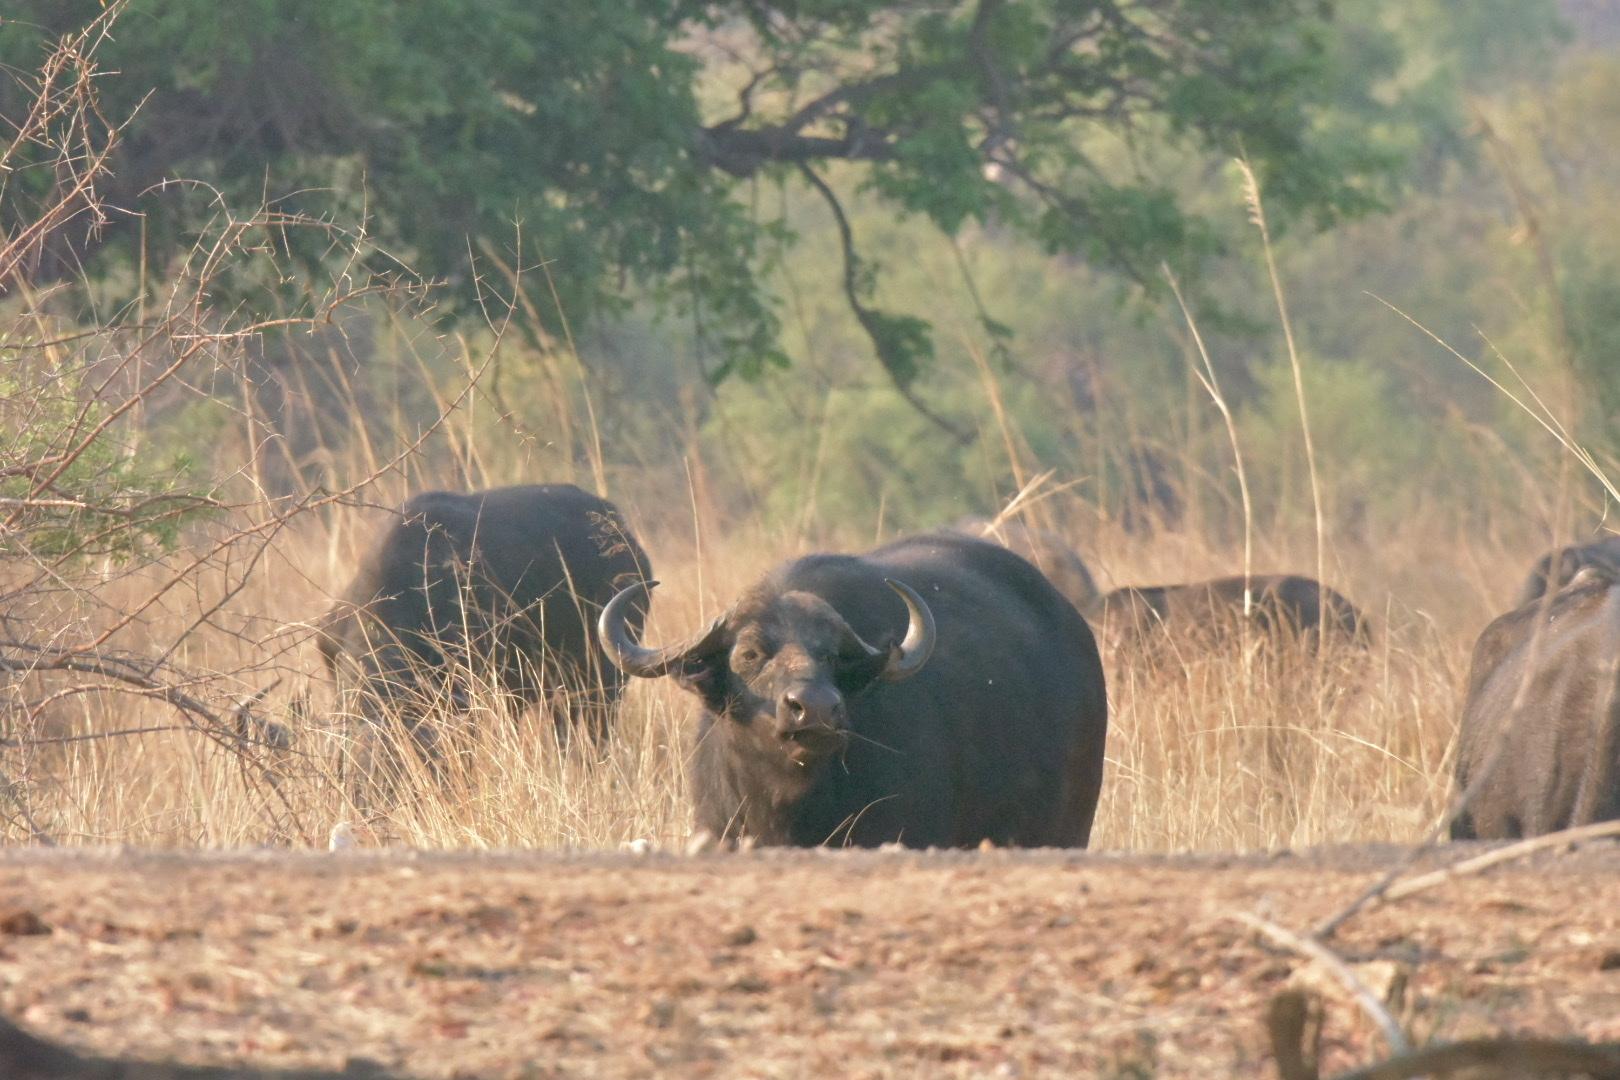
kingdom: Animalia
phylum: Chordata
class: Mammalia
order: Artiodactyla
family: Bovidae
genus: Syncerus
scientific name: Syncerus caffer
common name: African buffalo
